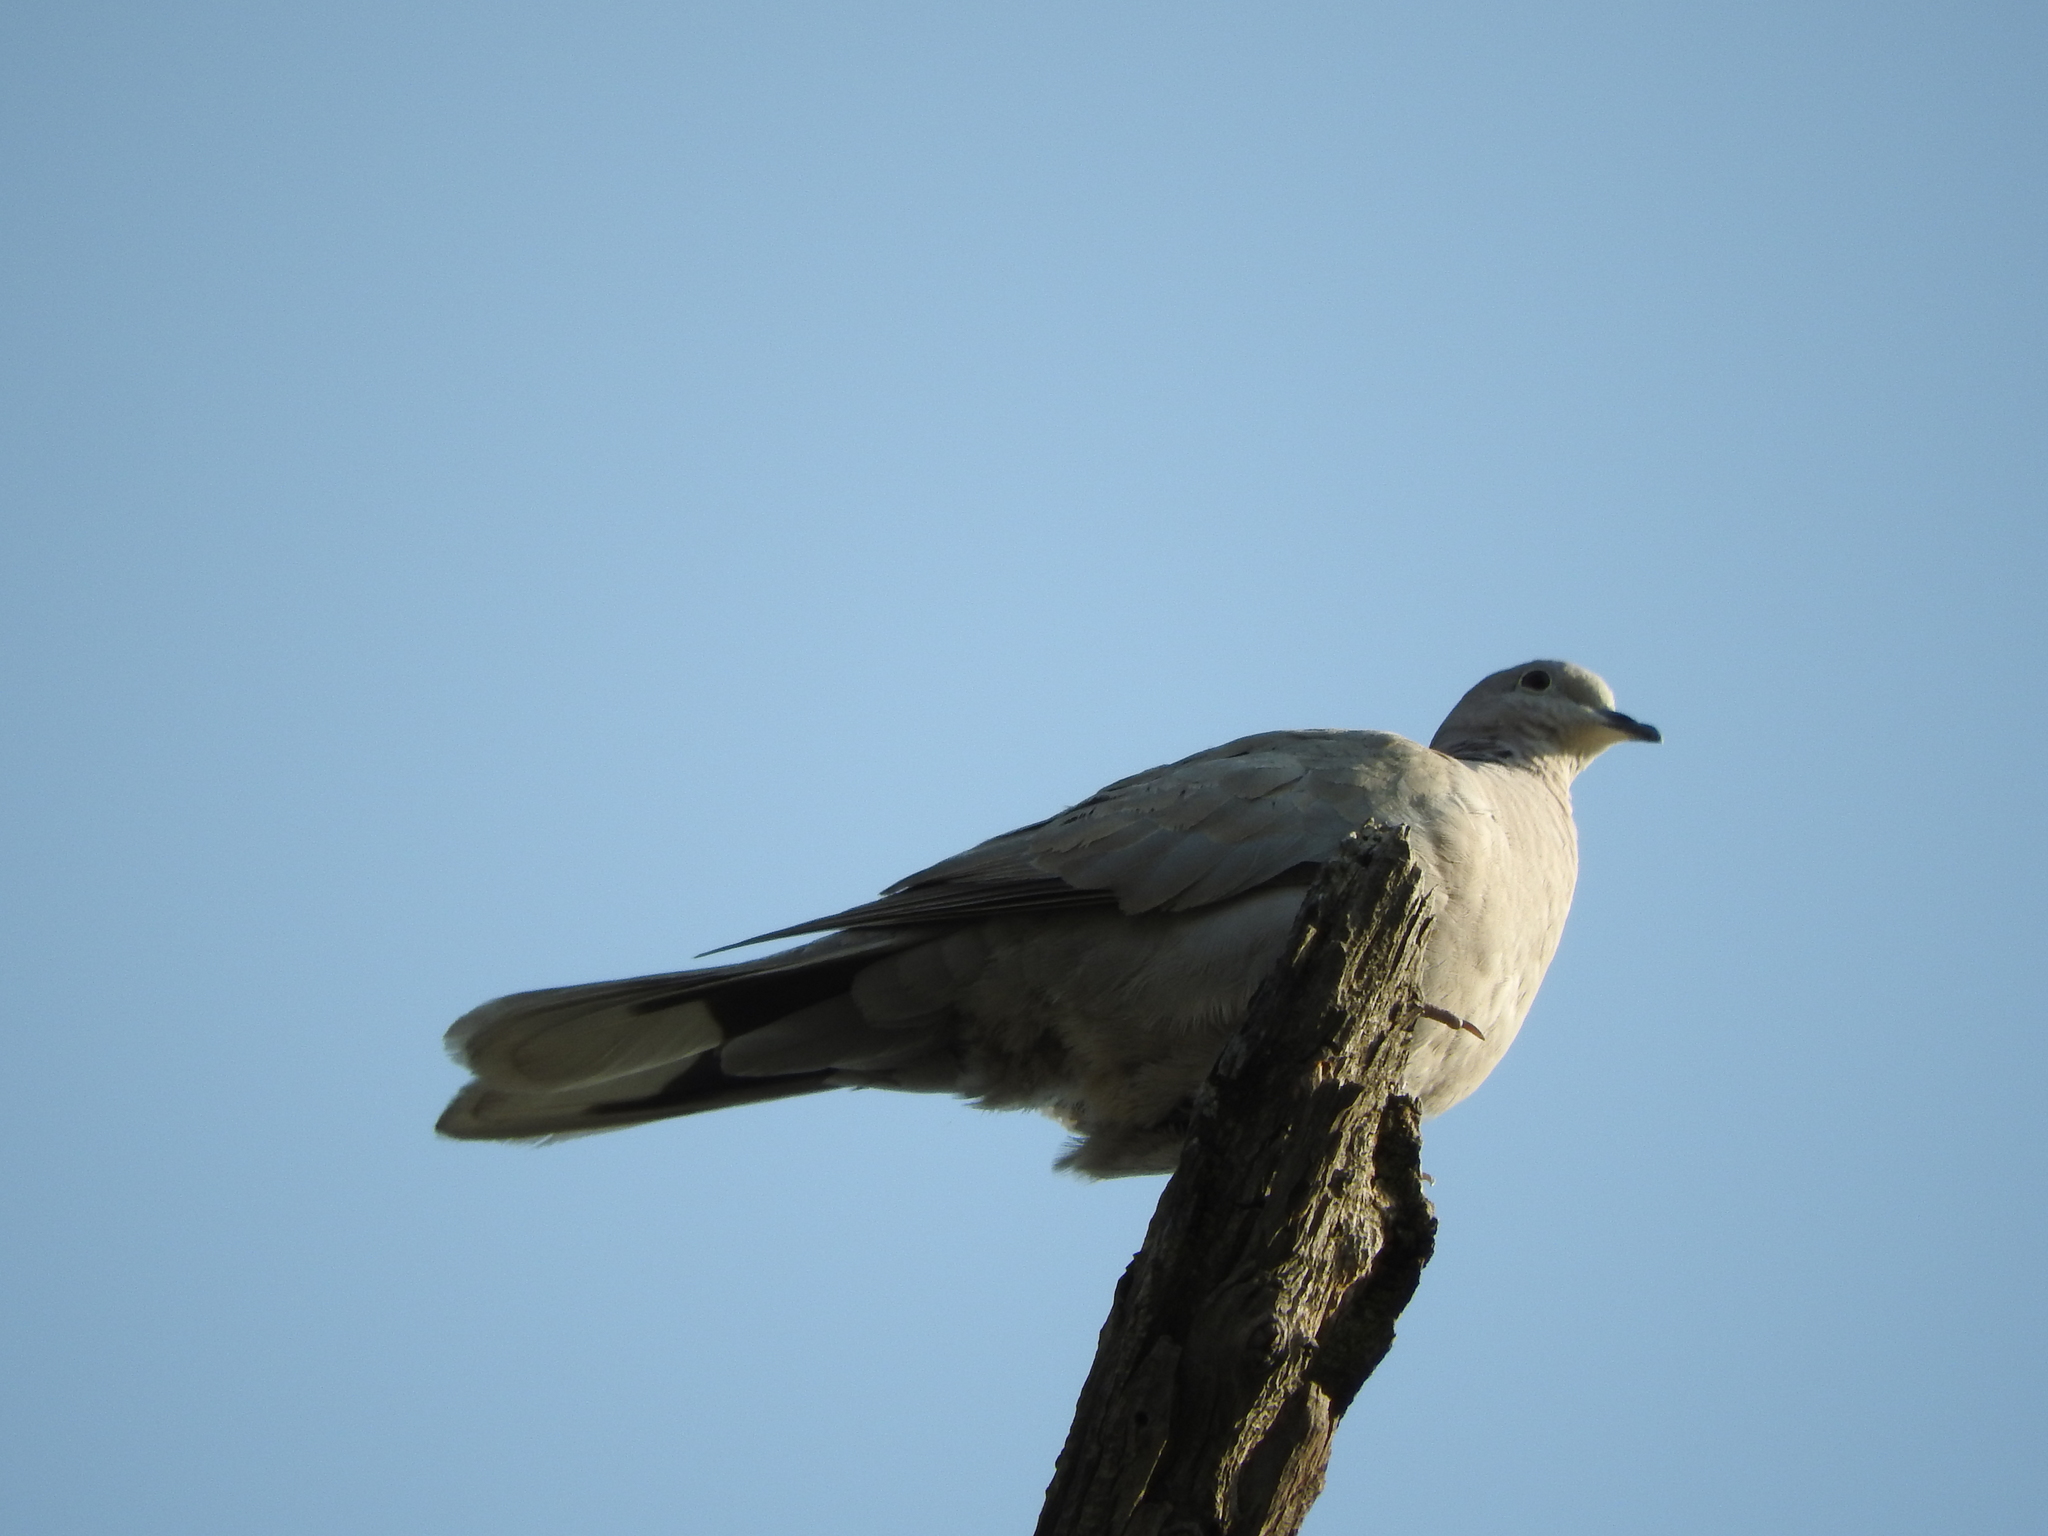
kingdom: Animalia
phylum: Chordata
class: Aves
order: Columbiformes
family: Columbidae
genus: Streptopelia
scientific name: Streptopelia decaocto
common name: Eurasian collared dove
